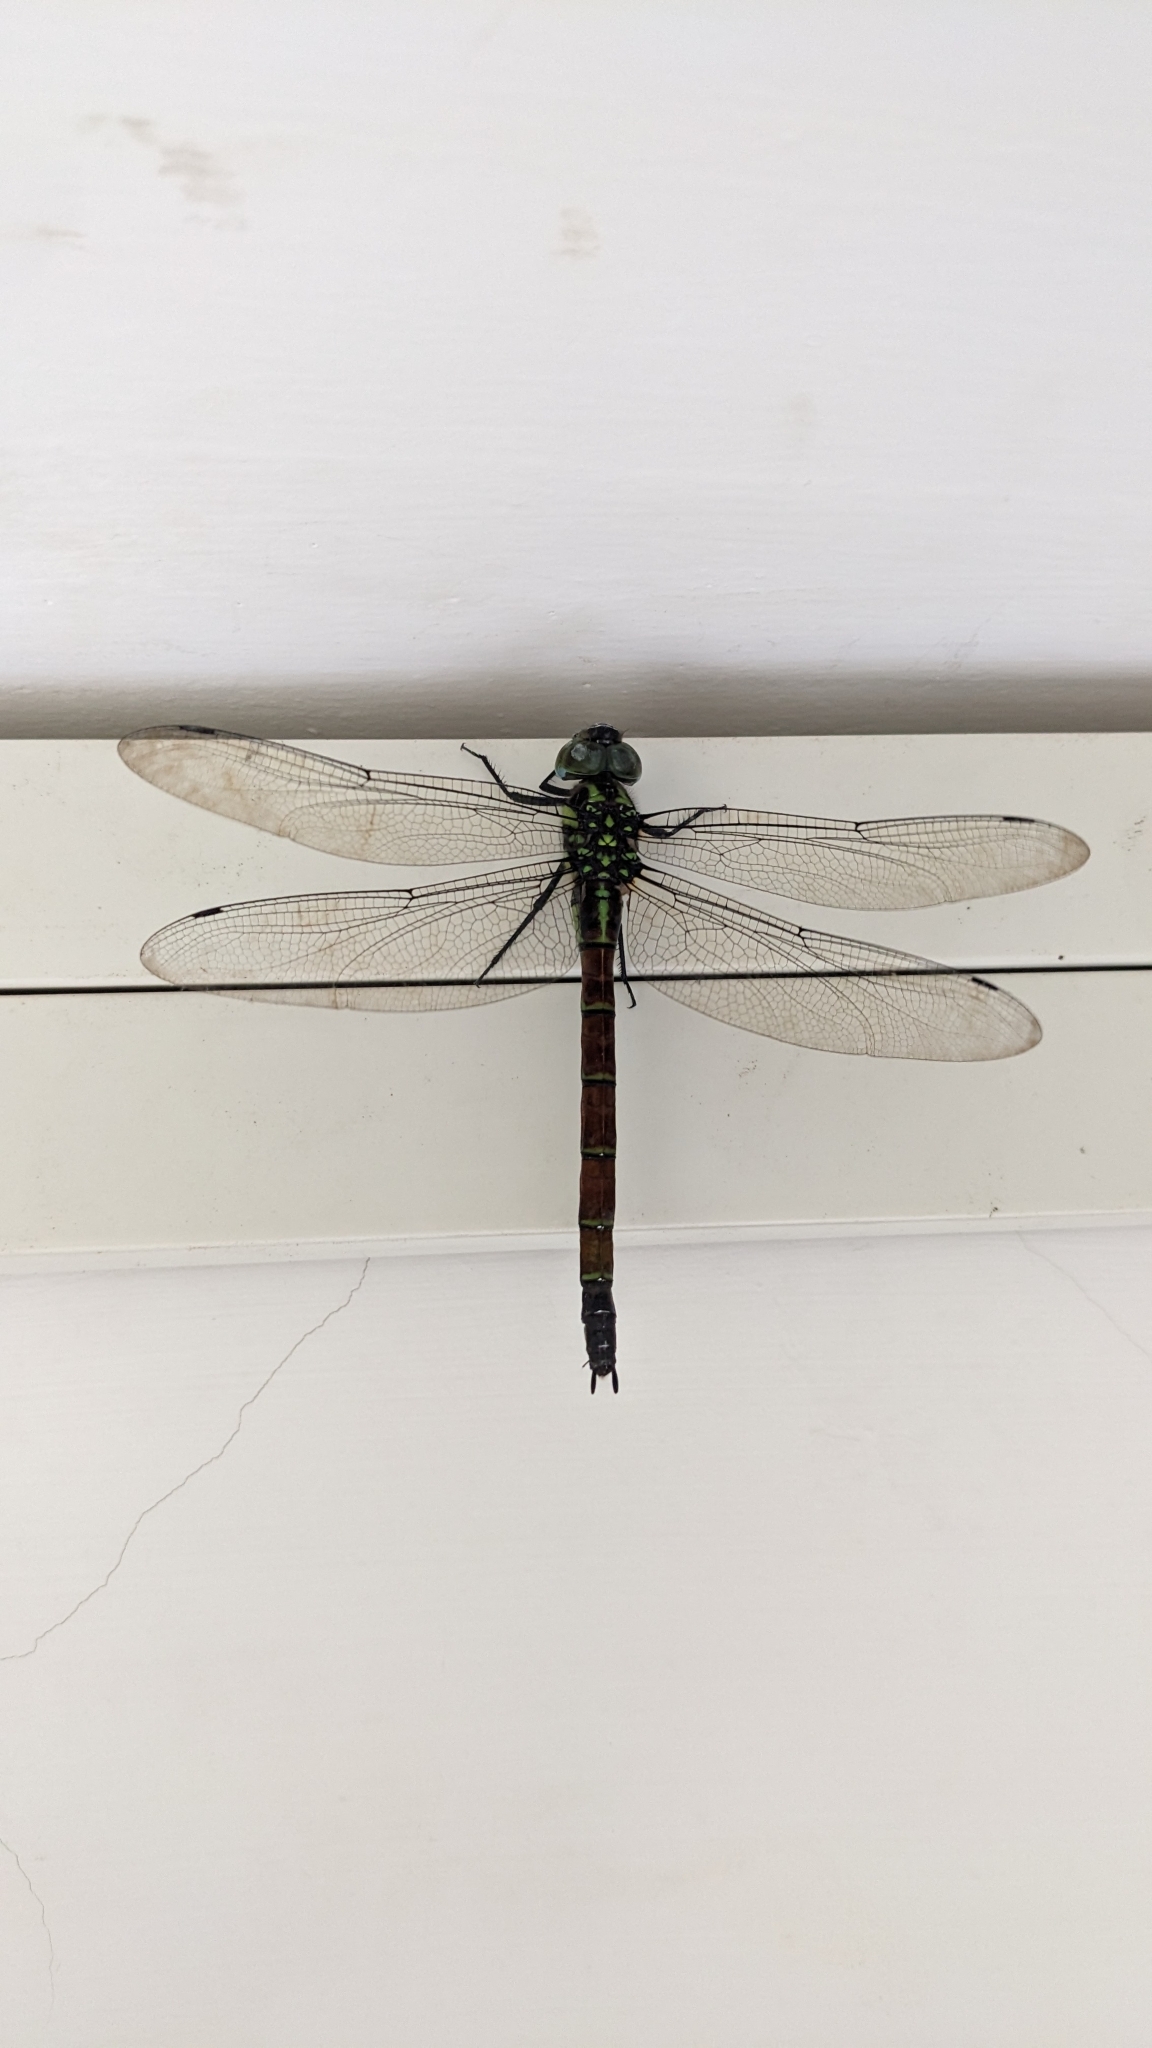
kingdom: Animalia
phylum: Arthropoda
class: Insecta
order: Odonata
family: Aeshnidae
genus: Indaeschna
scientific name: Indaeschna
